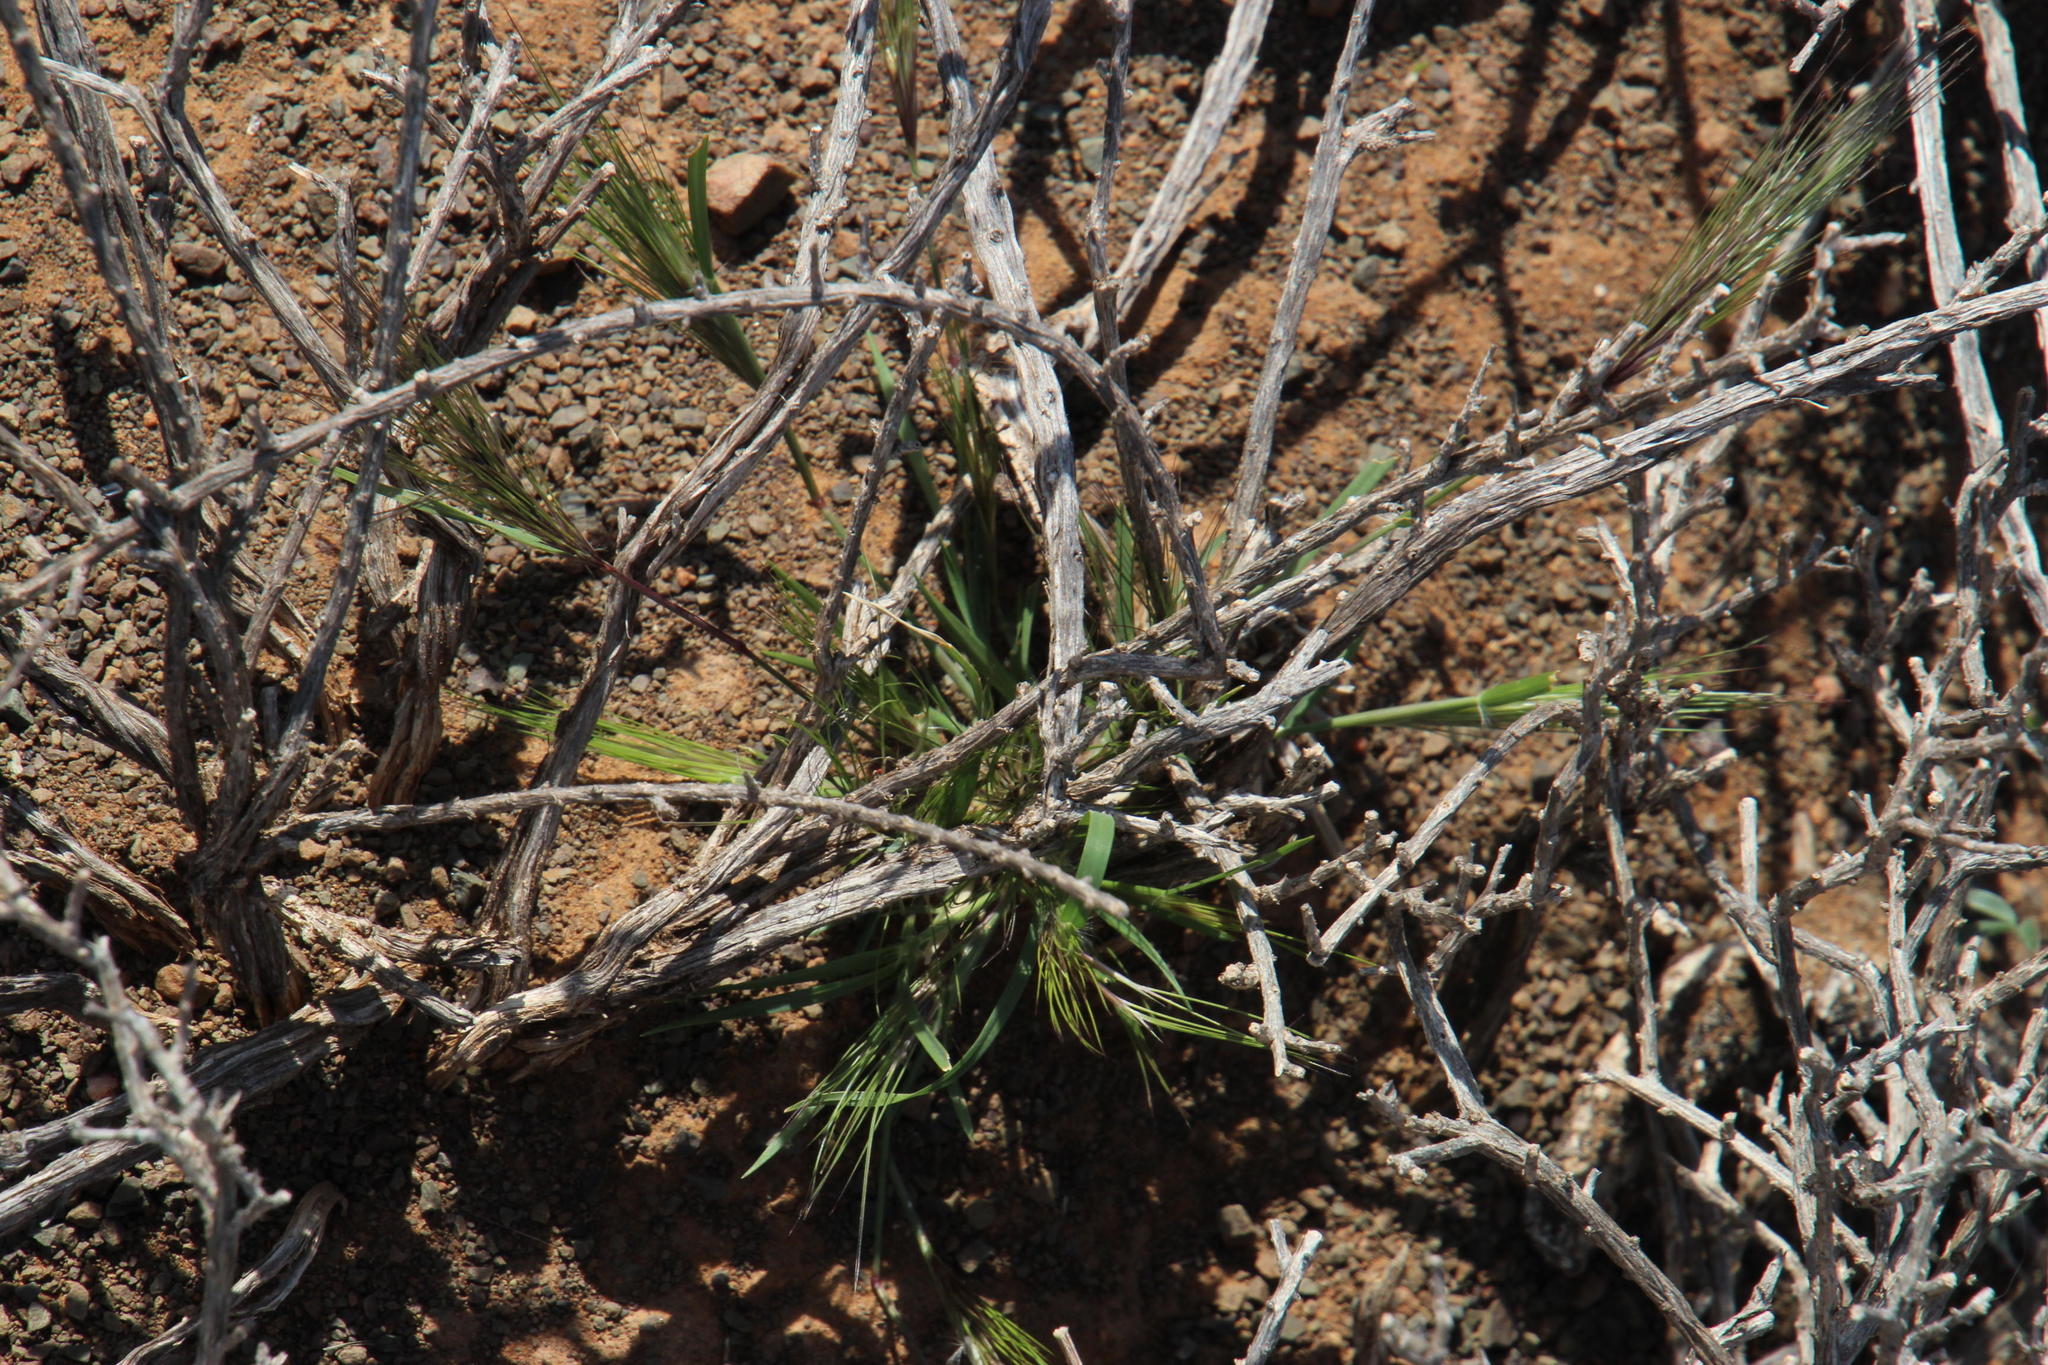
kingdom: Plantae
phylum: Tracheophyta
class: Liliopsida
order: Poales
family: Poaceae
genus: Aristida
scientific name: Aristida congesta
